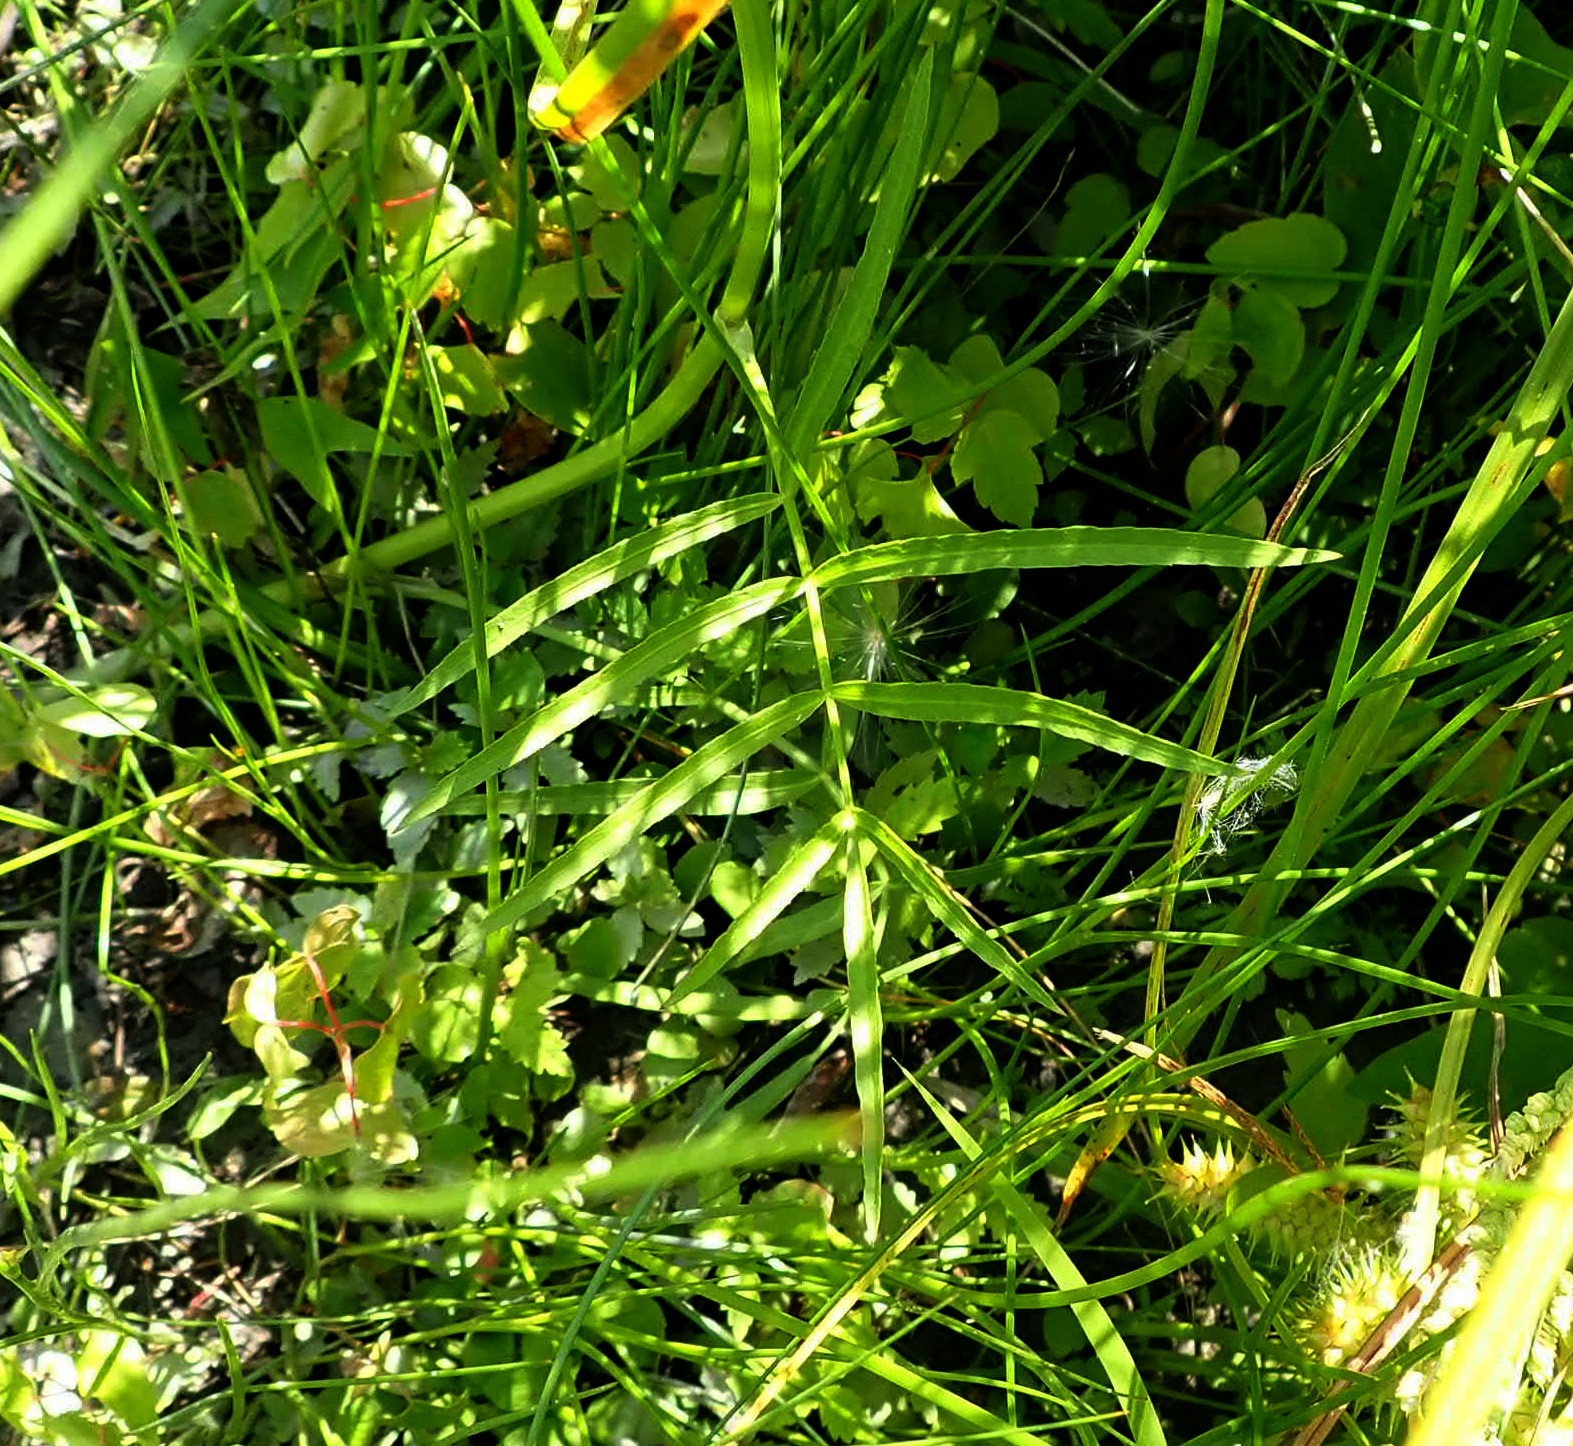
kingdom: Plantae
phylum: Tracheophyta
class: Magnoliopsida
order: Apiales
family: Apiaceae
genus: Sium
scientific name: Sium suave
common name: Hemlock water-parsnip
